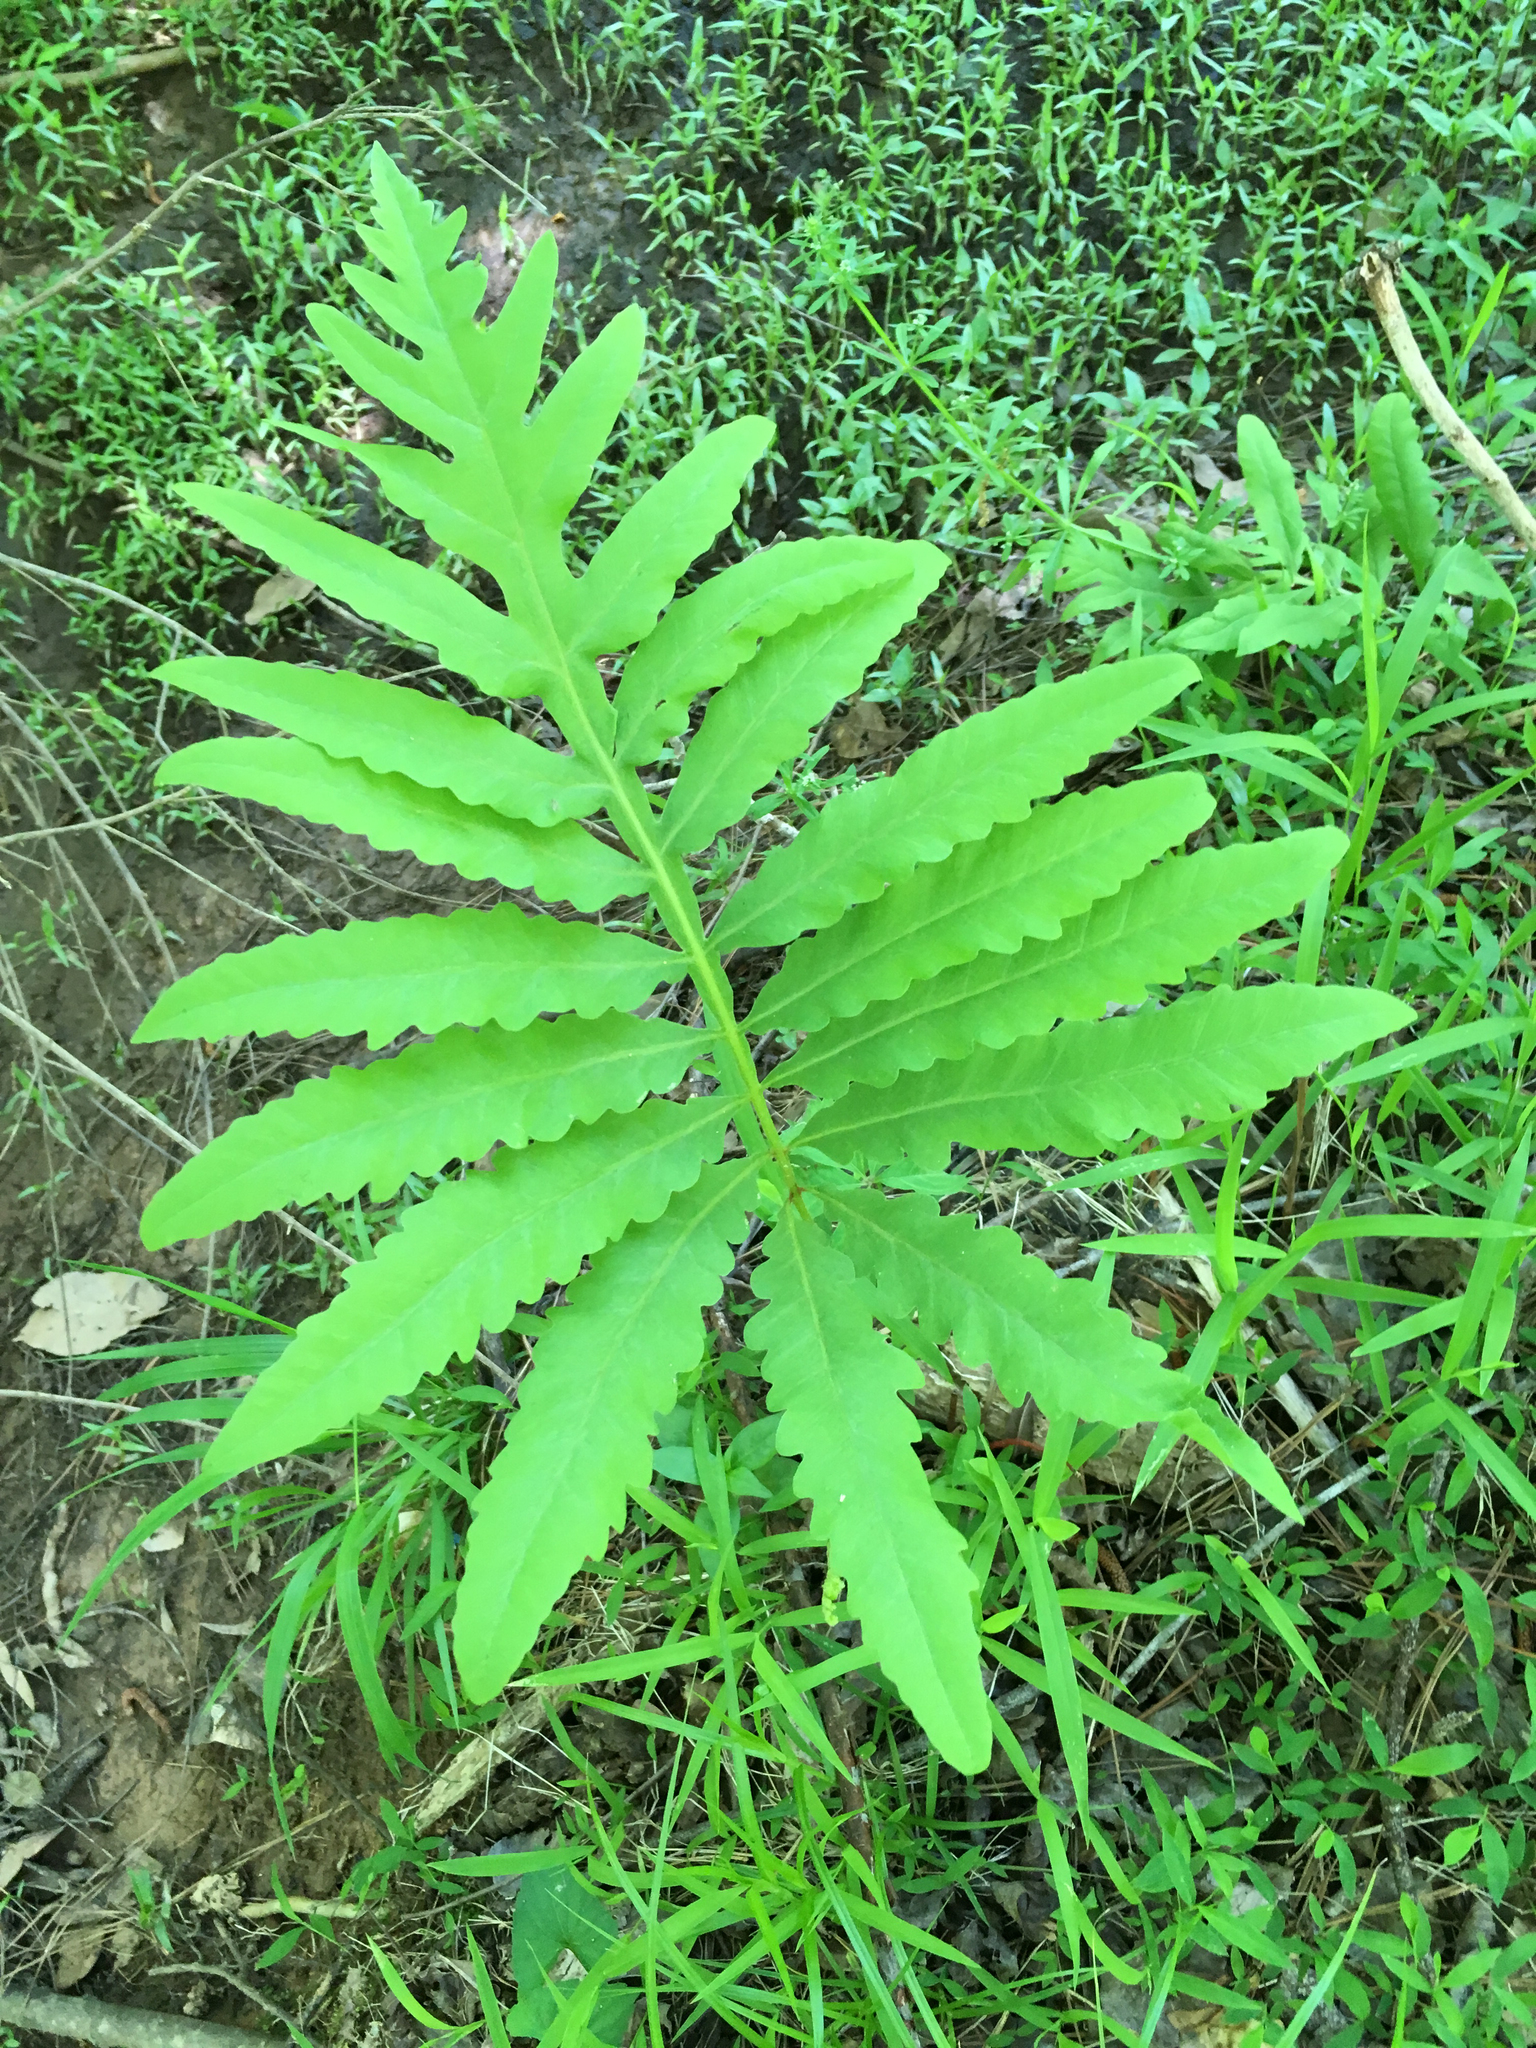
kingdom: Plantae
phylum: Tracheophyta
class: Polypodiopsida
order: Polypodiales
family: Onocleaceae
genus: Onoclea
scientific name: Onoclea sensibilis
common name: Sensitive fern
